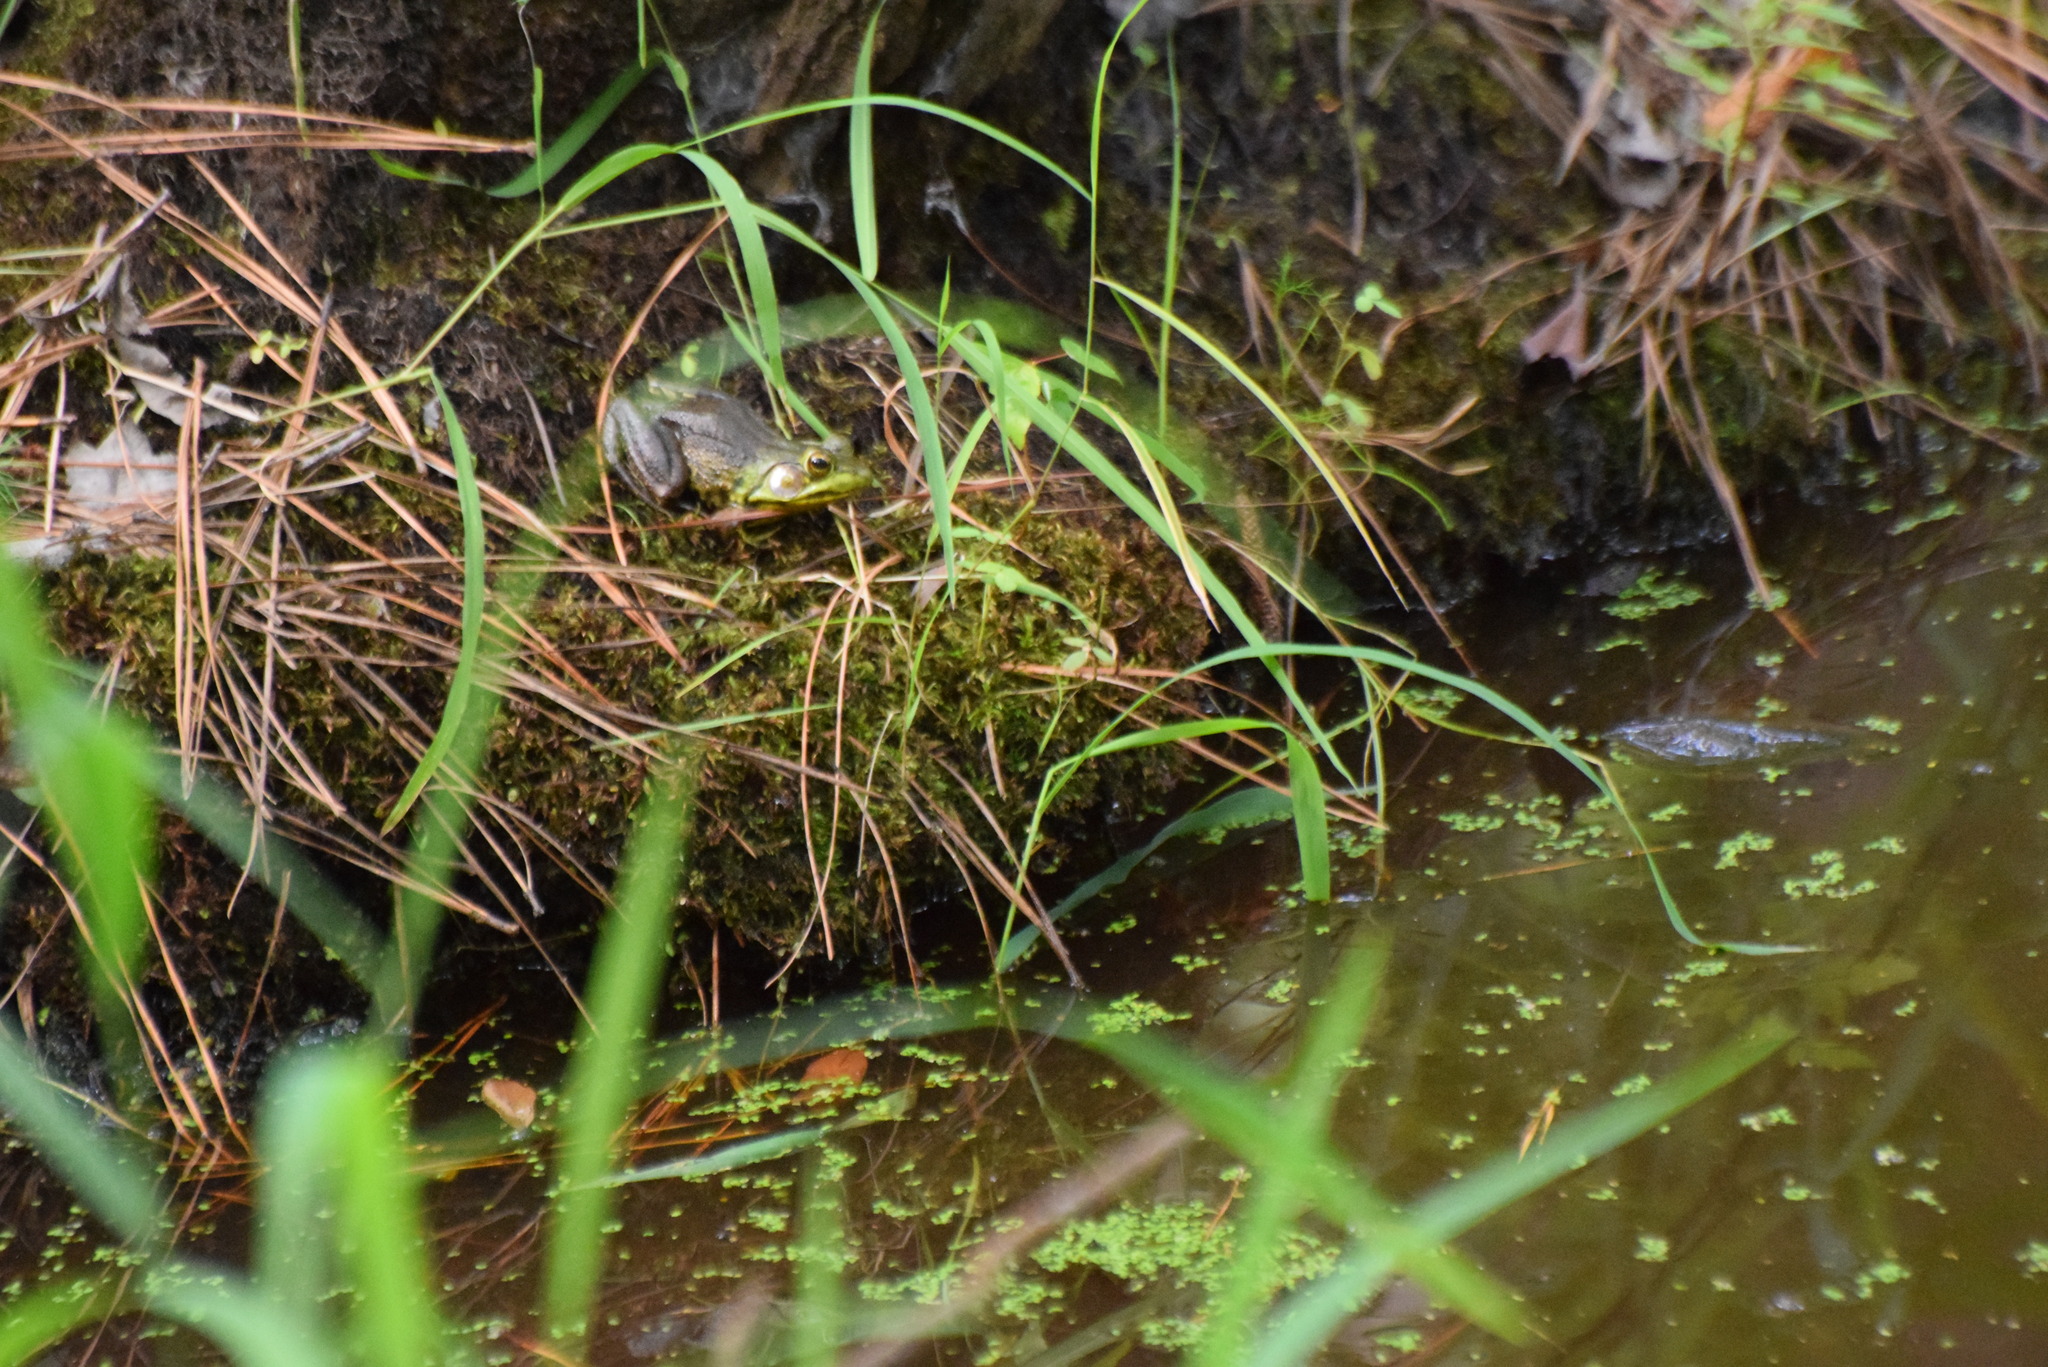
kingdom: Animalia
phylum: Chordata
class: Amphibia
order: Anura
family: Ranidae
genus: Lithobates
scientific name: Lithobates clamitans
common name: Green frog
